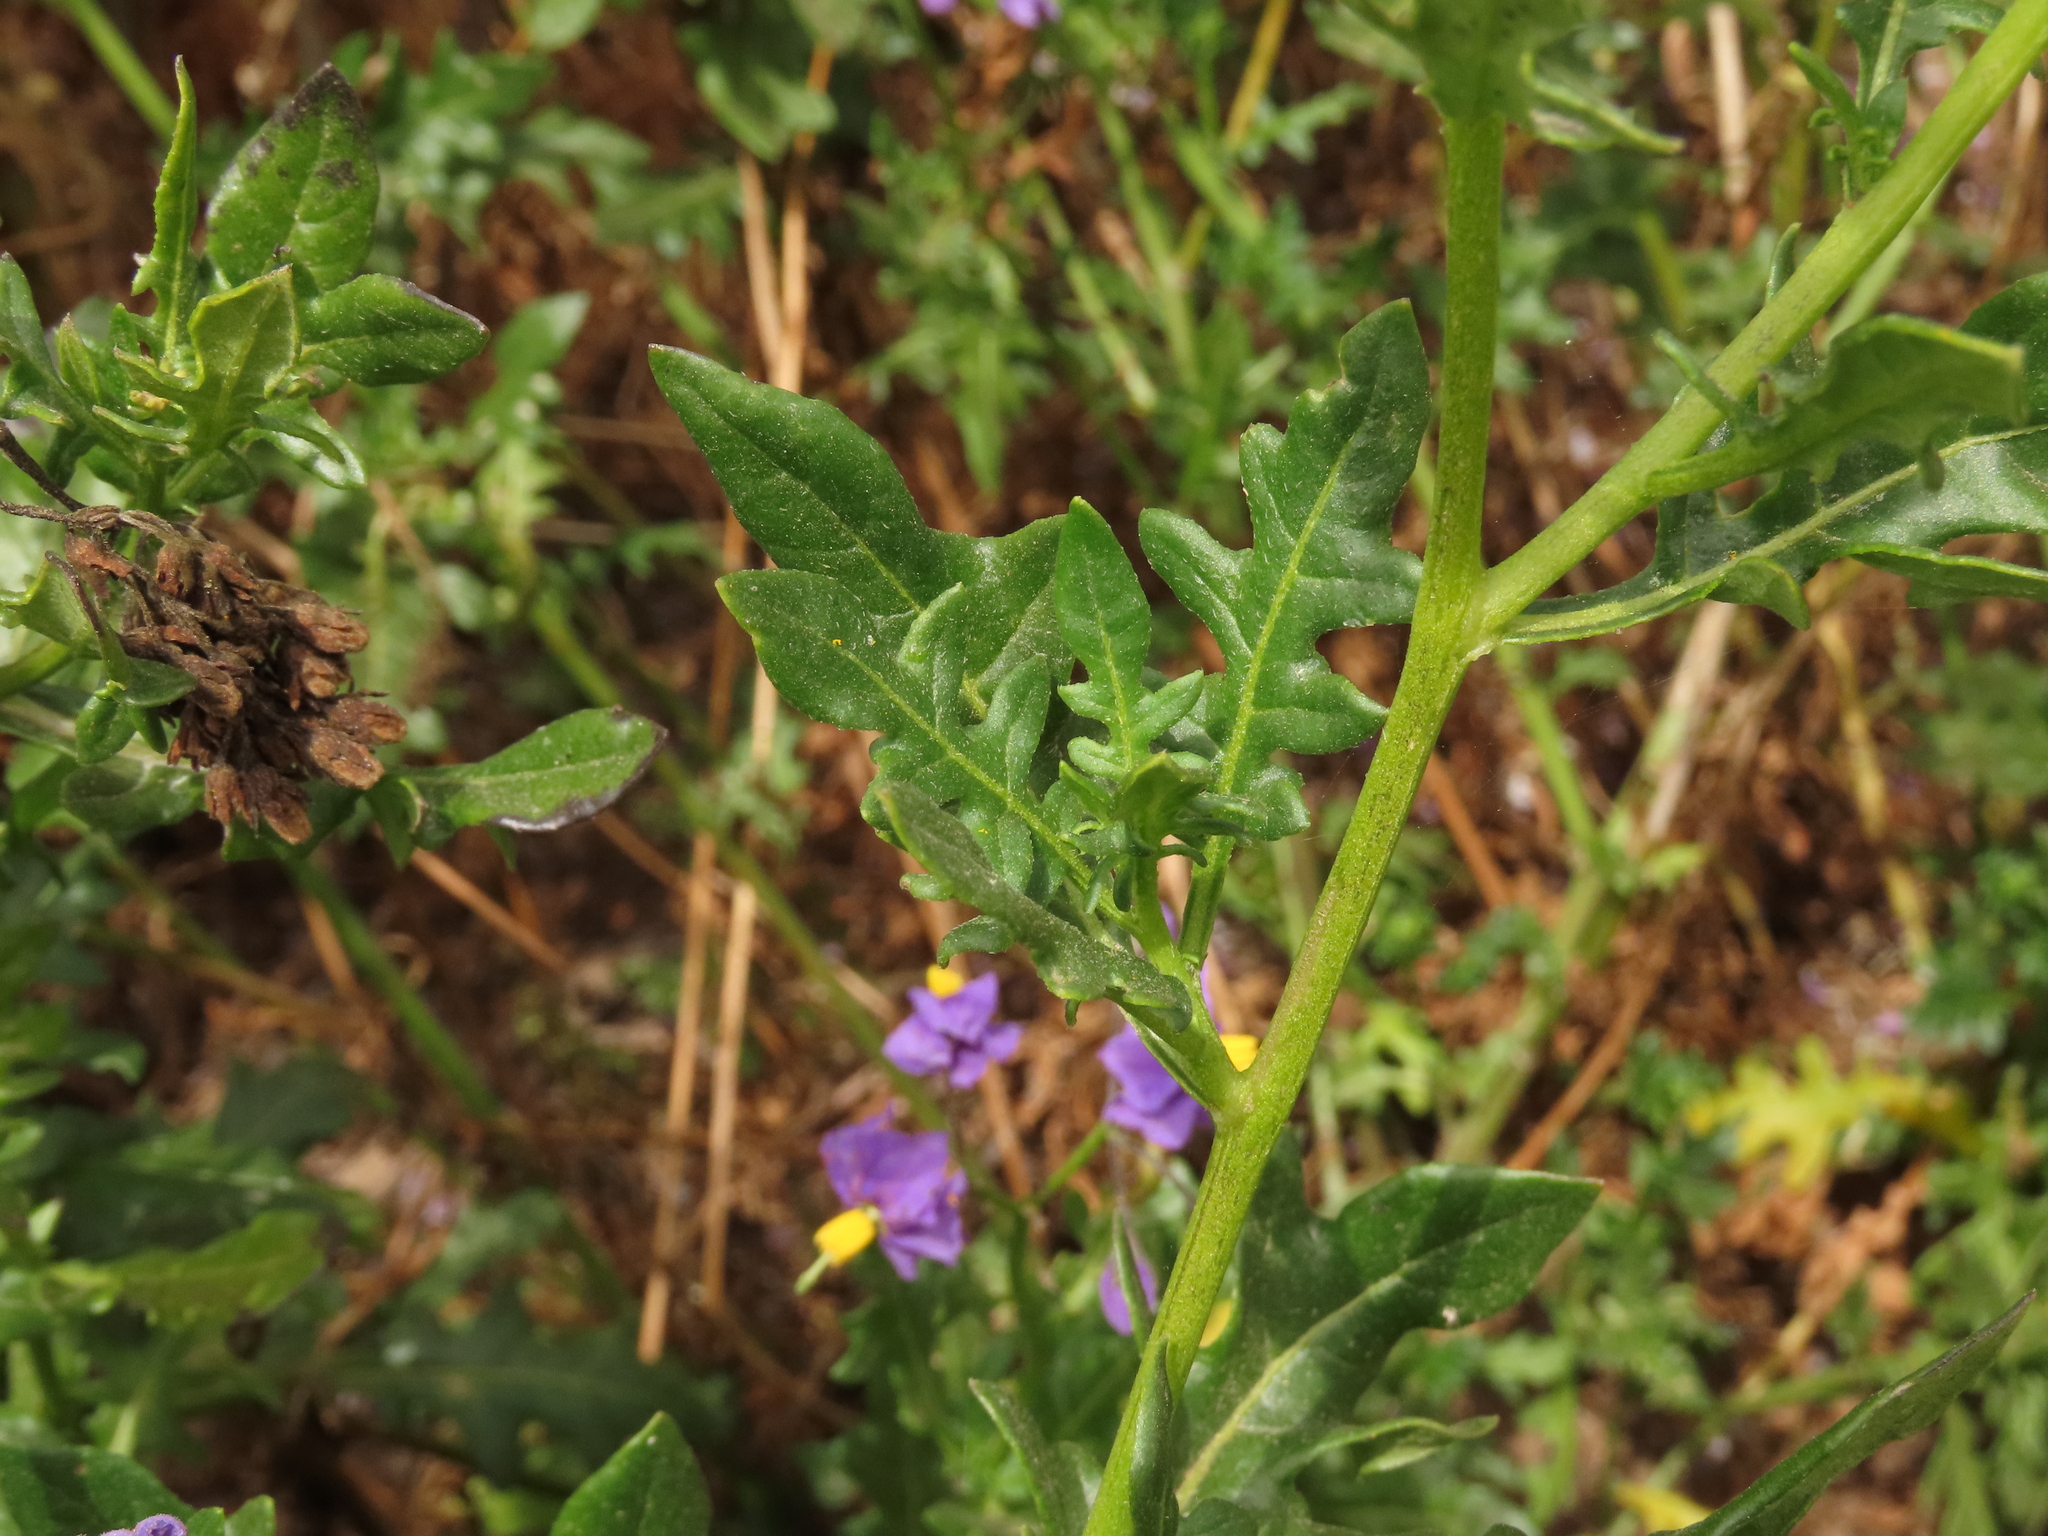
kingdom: Plantae
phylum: Tracheophyta
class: Magnoliopsida
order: Solanales
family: Solanaceae
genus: Solanum
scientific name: Solanum pinnatum
